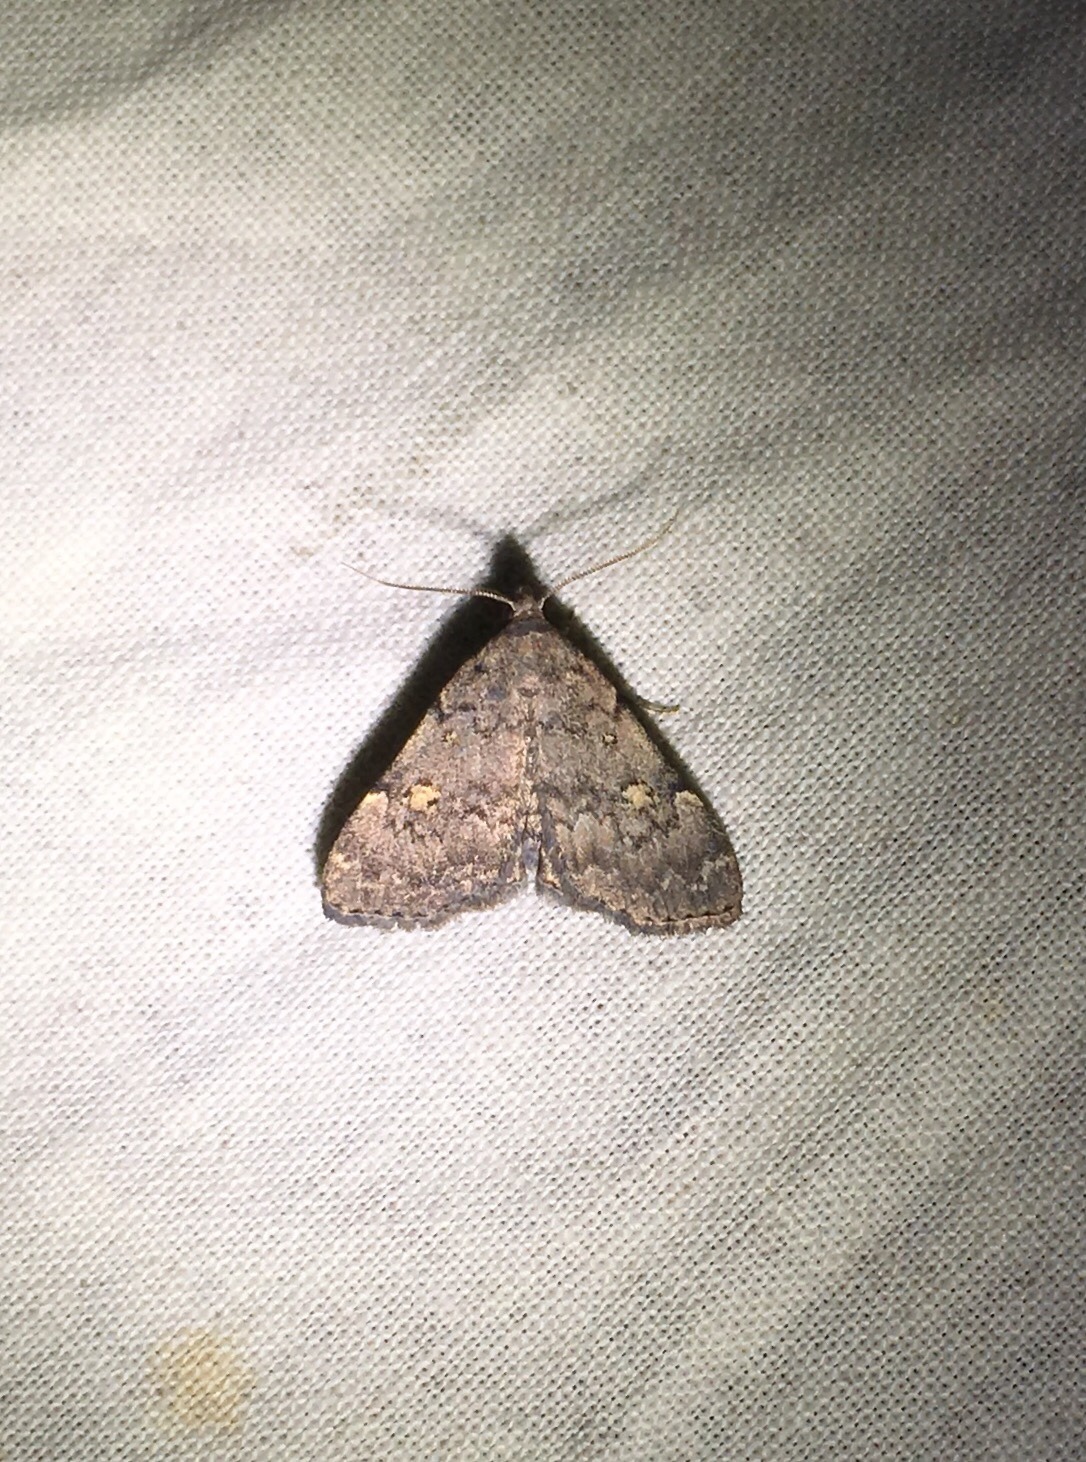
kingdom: Animalia
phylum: Arthropoda
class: Insecta
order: Lepidoptera
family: Erebidae
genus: Idia
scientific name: Idia aemula
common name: Common idia moth
